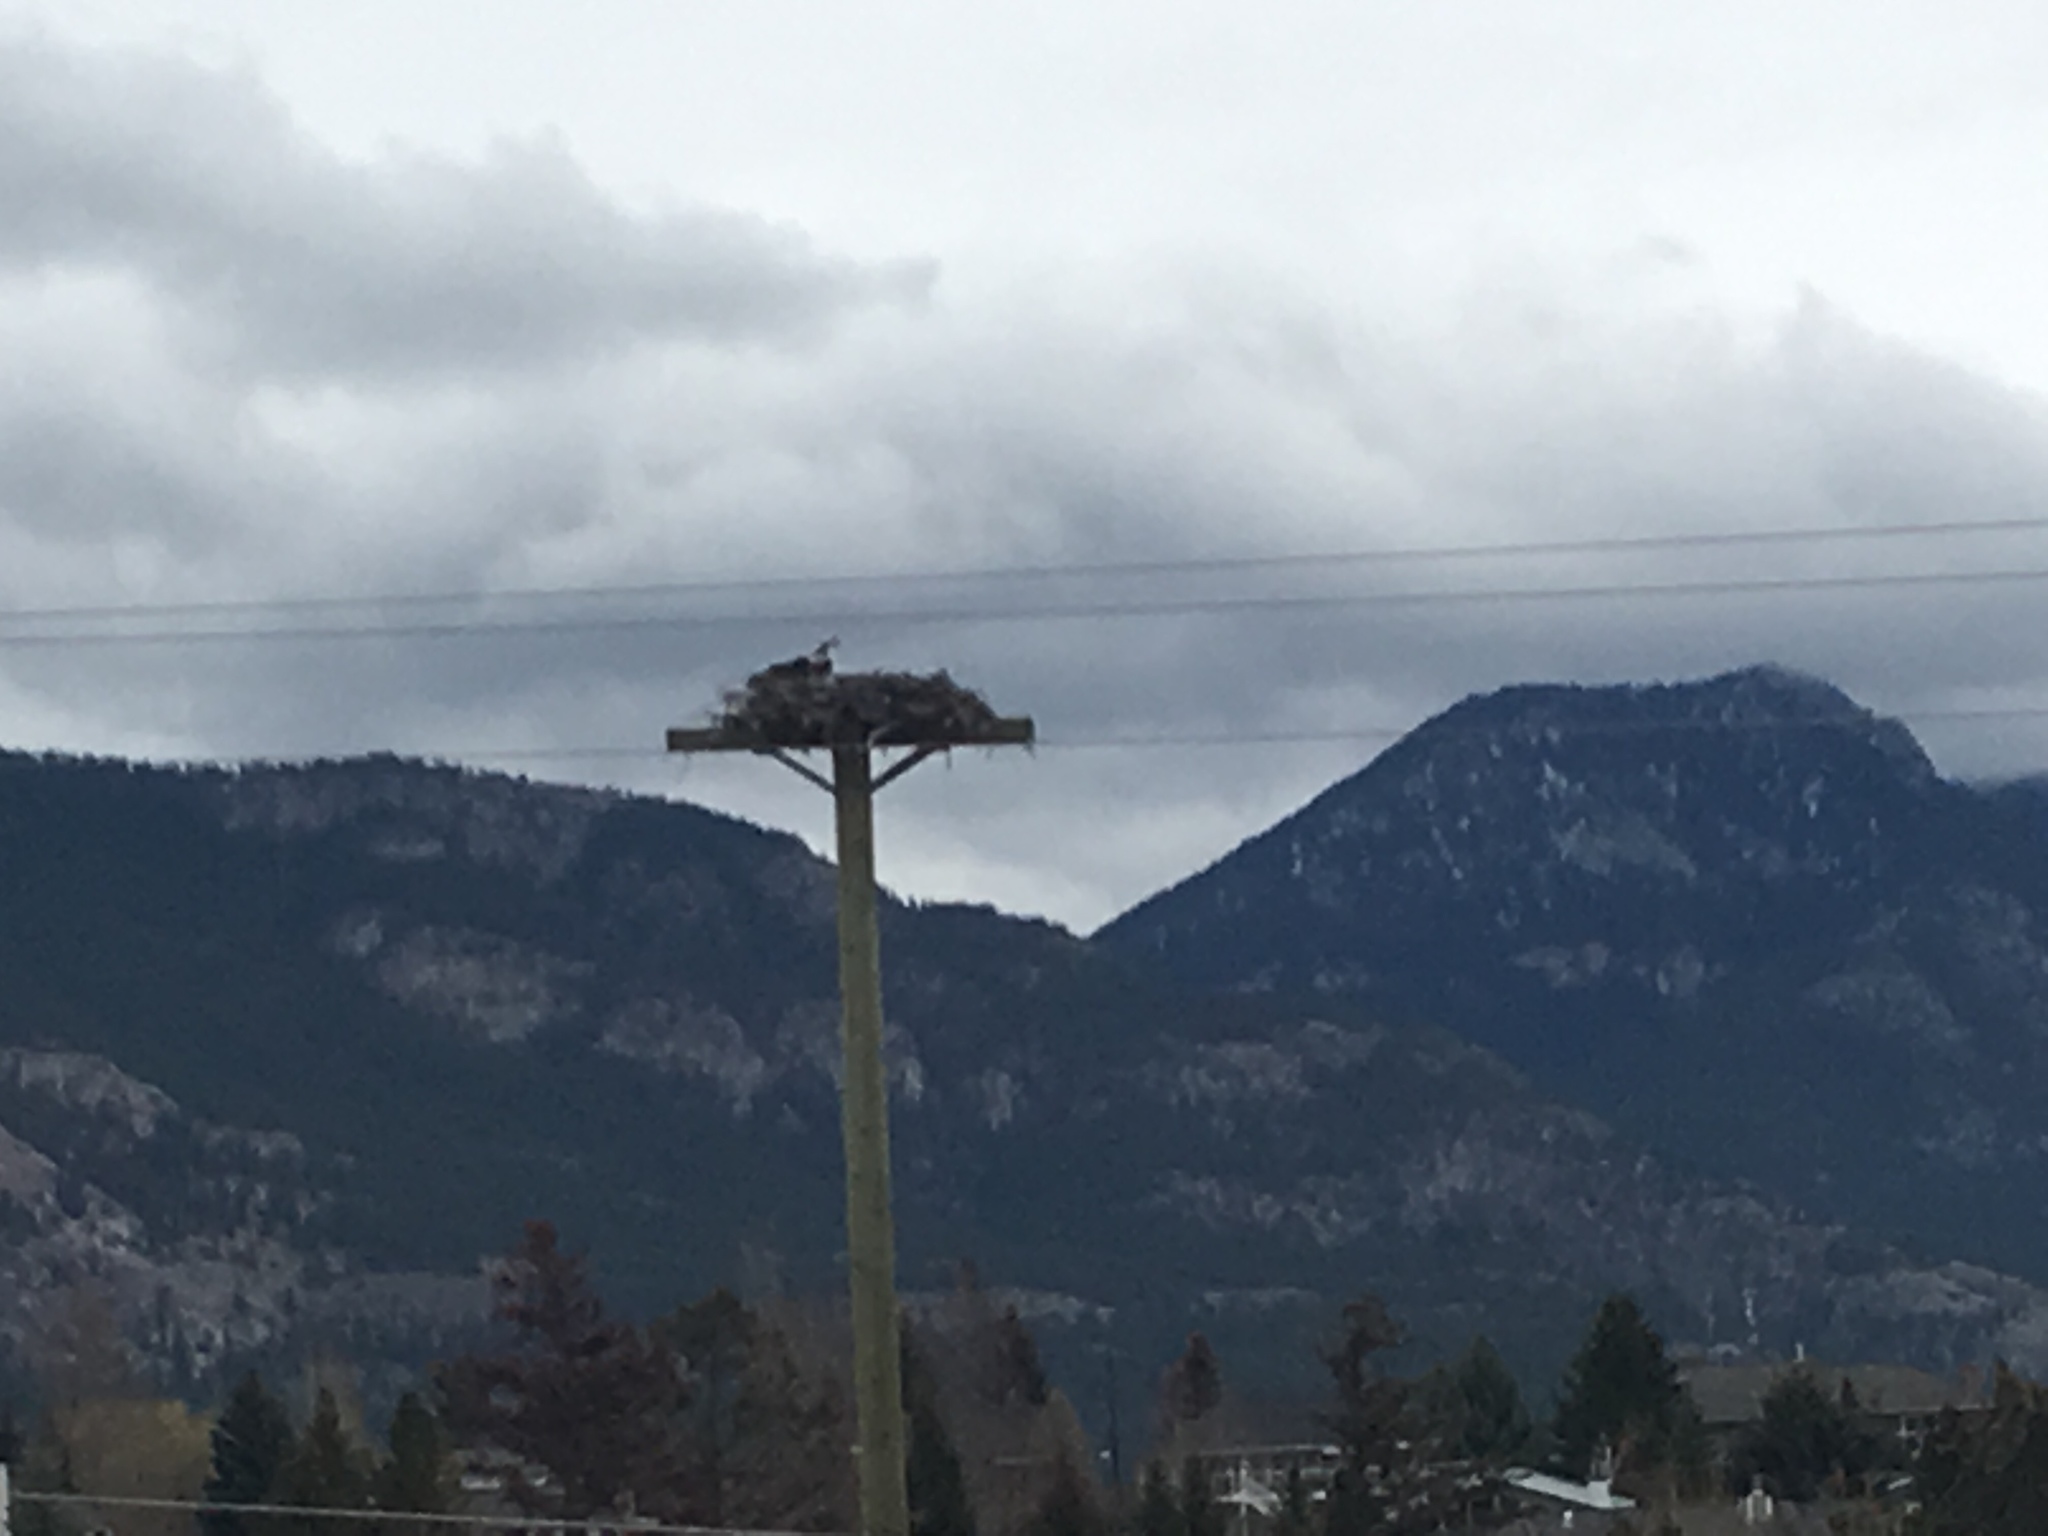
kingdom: Animalia
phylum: Chordata
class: Aves
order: Accipitriformes
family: Pandionidae
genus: Pandion
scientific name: Pandion haliaetus
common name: Osprey
